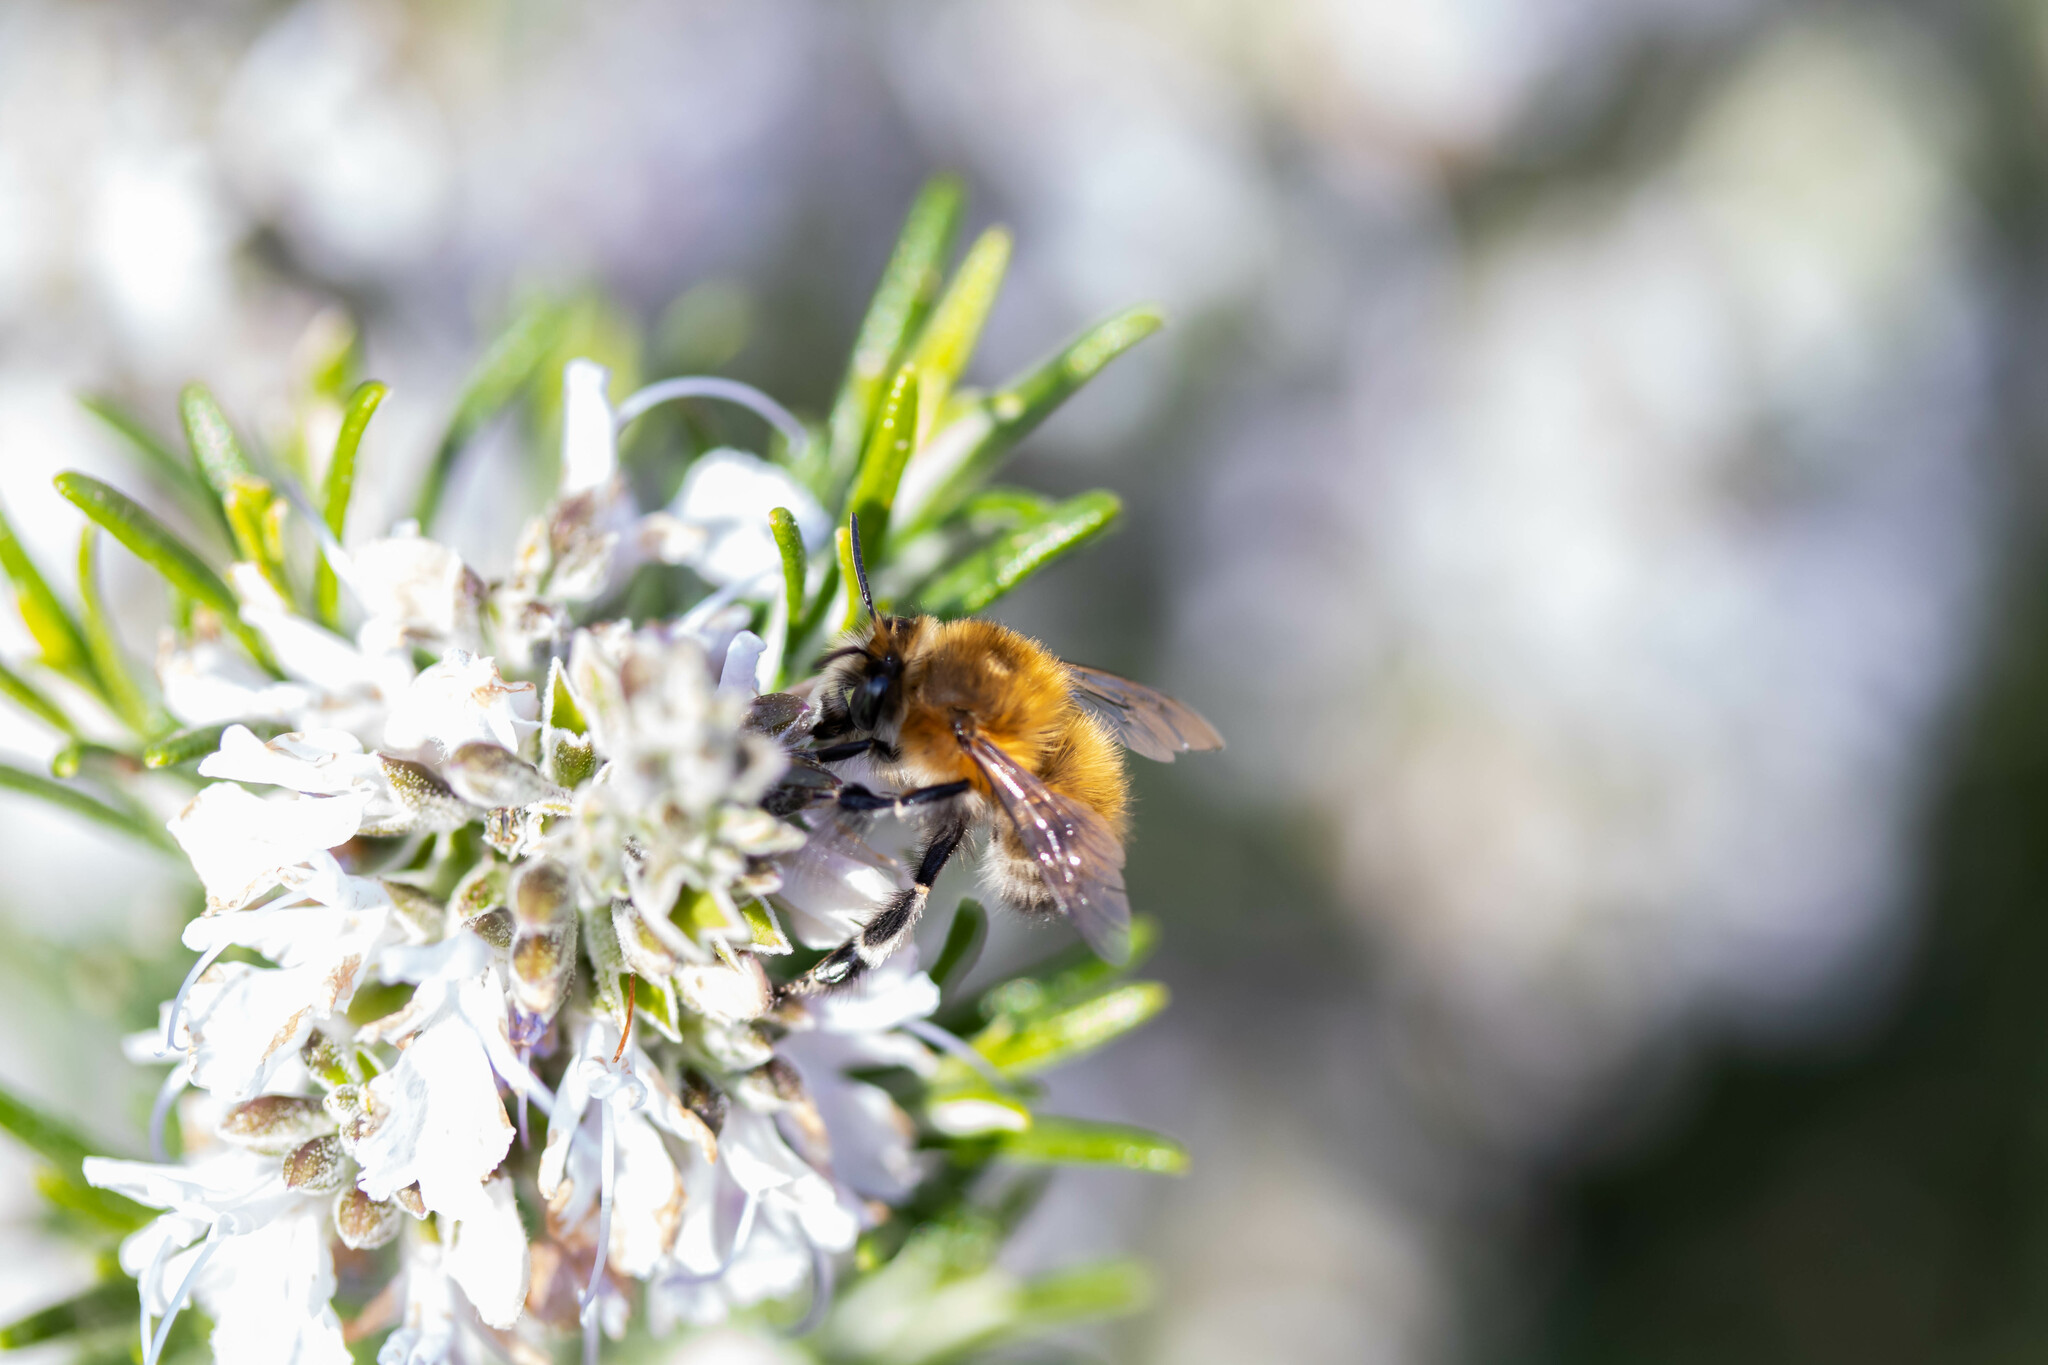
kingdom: Animalia
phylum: Arthropoda
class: Insecta
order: Hymenoptera
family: Apidae
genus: Anthophora
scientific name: Anthophora plumipes
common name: Hairy-footed flower bee
